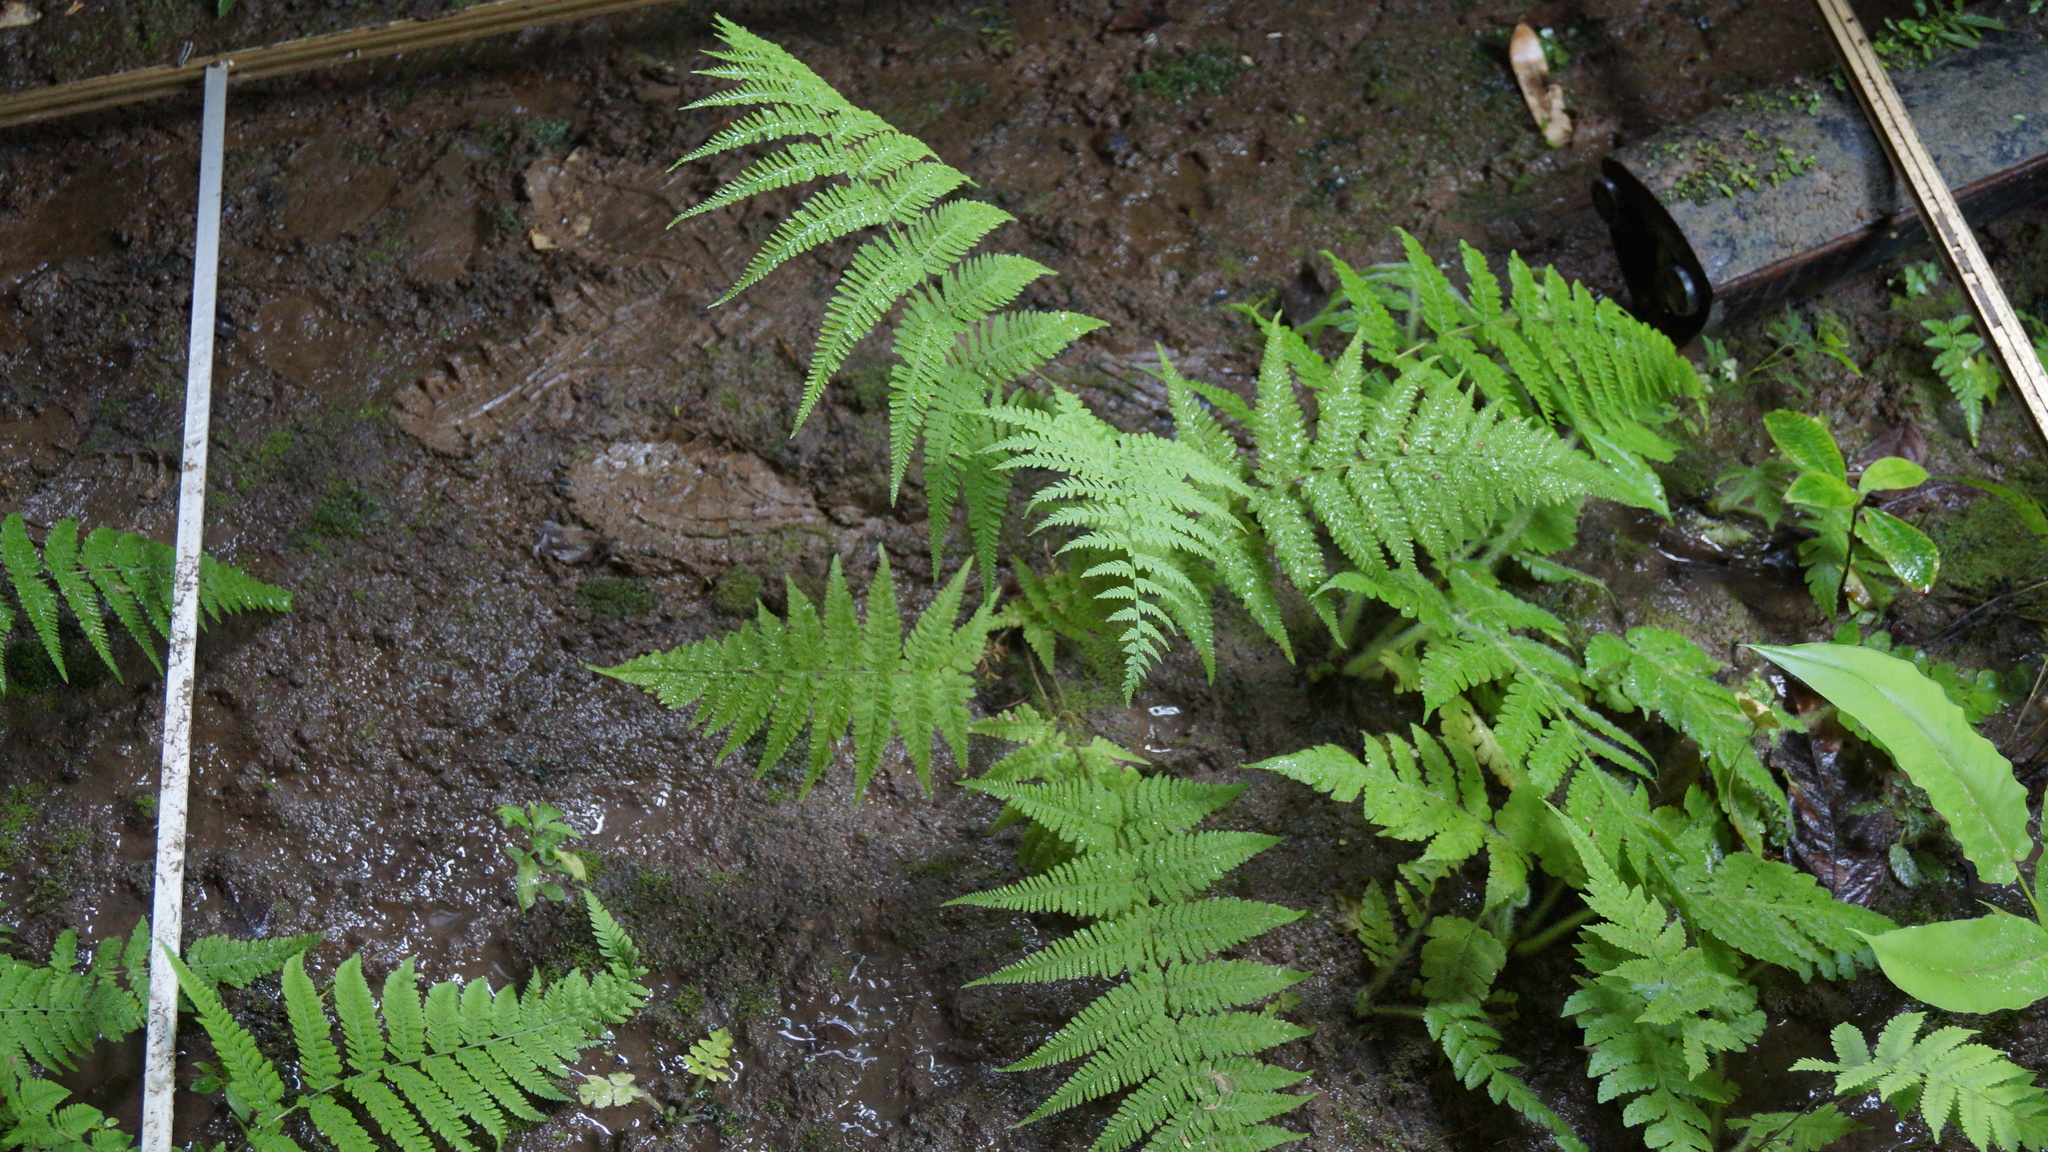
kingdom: Plantae
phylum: Tracheophyta
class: Polypodiopsida
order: Polypodiales
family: Thelypteridaceae
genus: Macrothelypteris
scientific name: Macrothelypteris torresiana
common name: Swordfern
